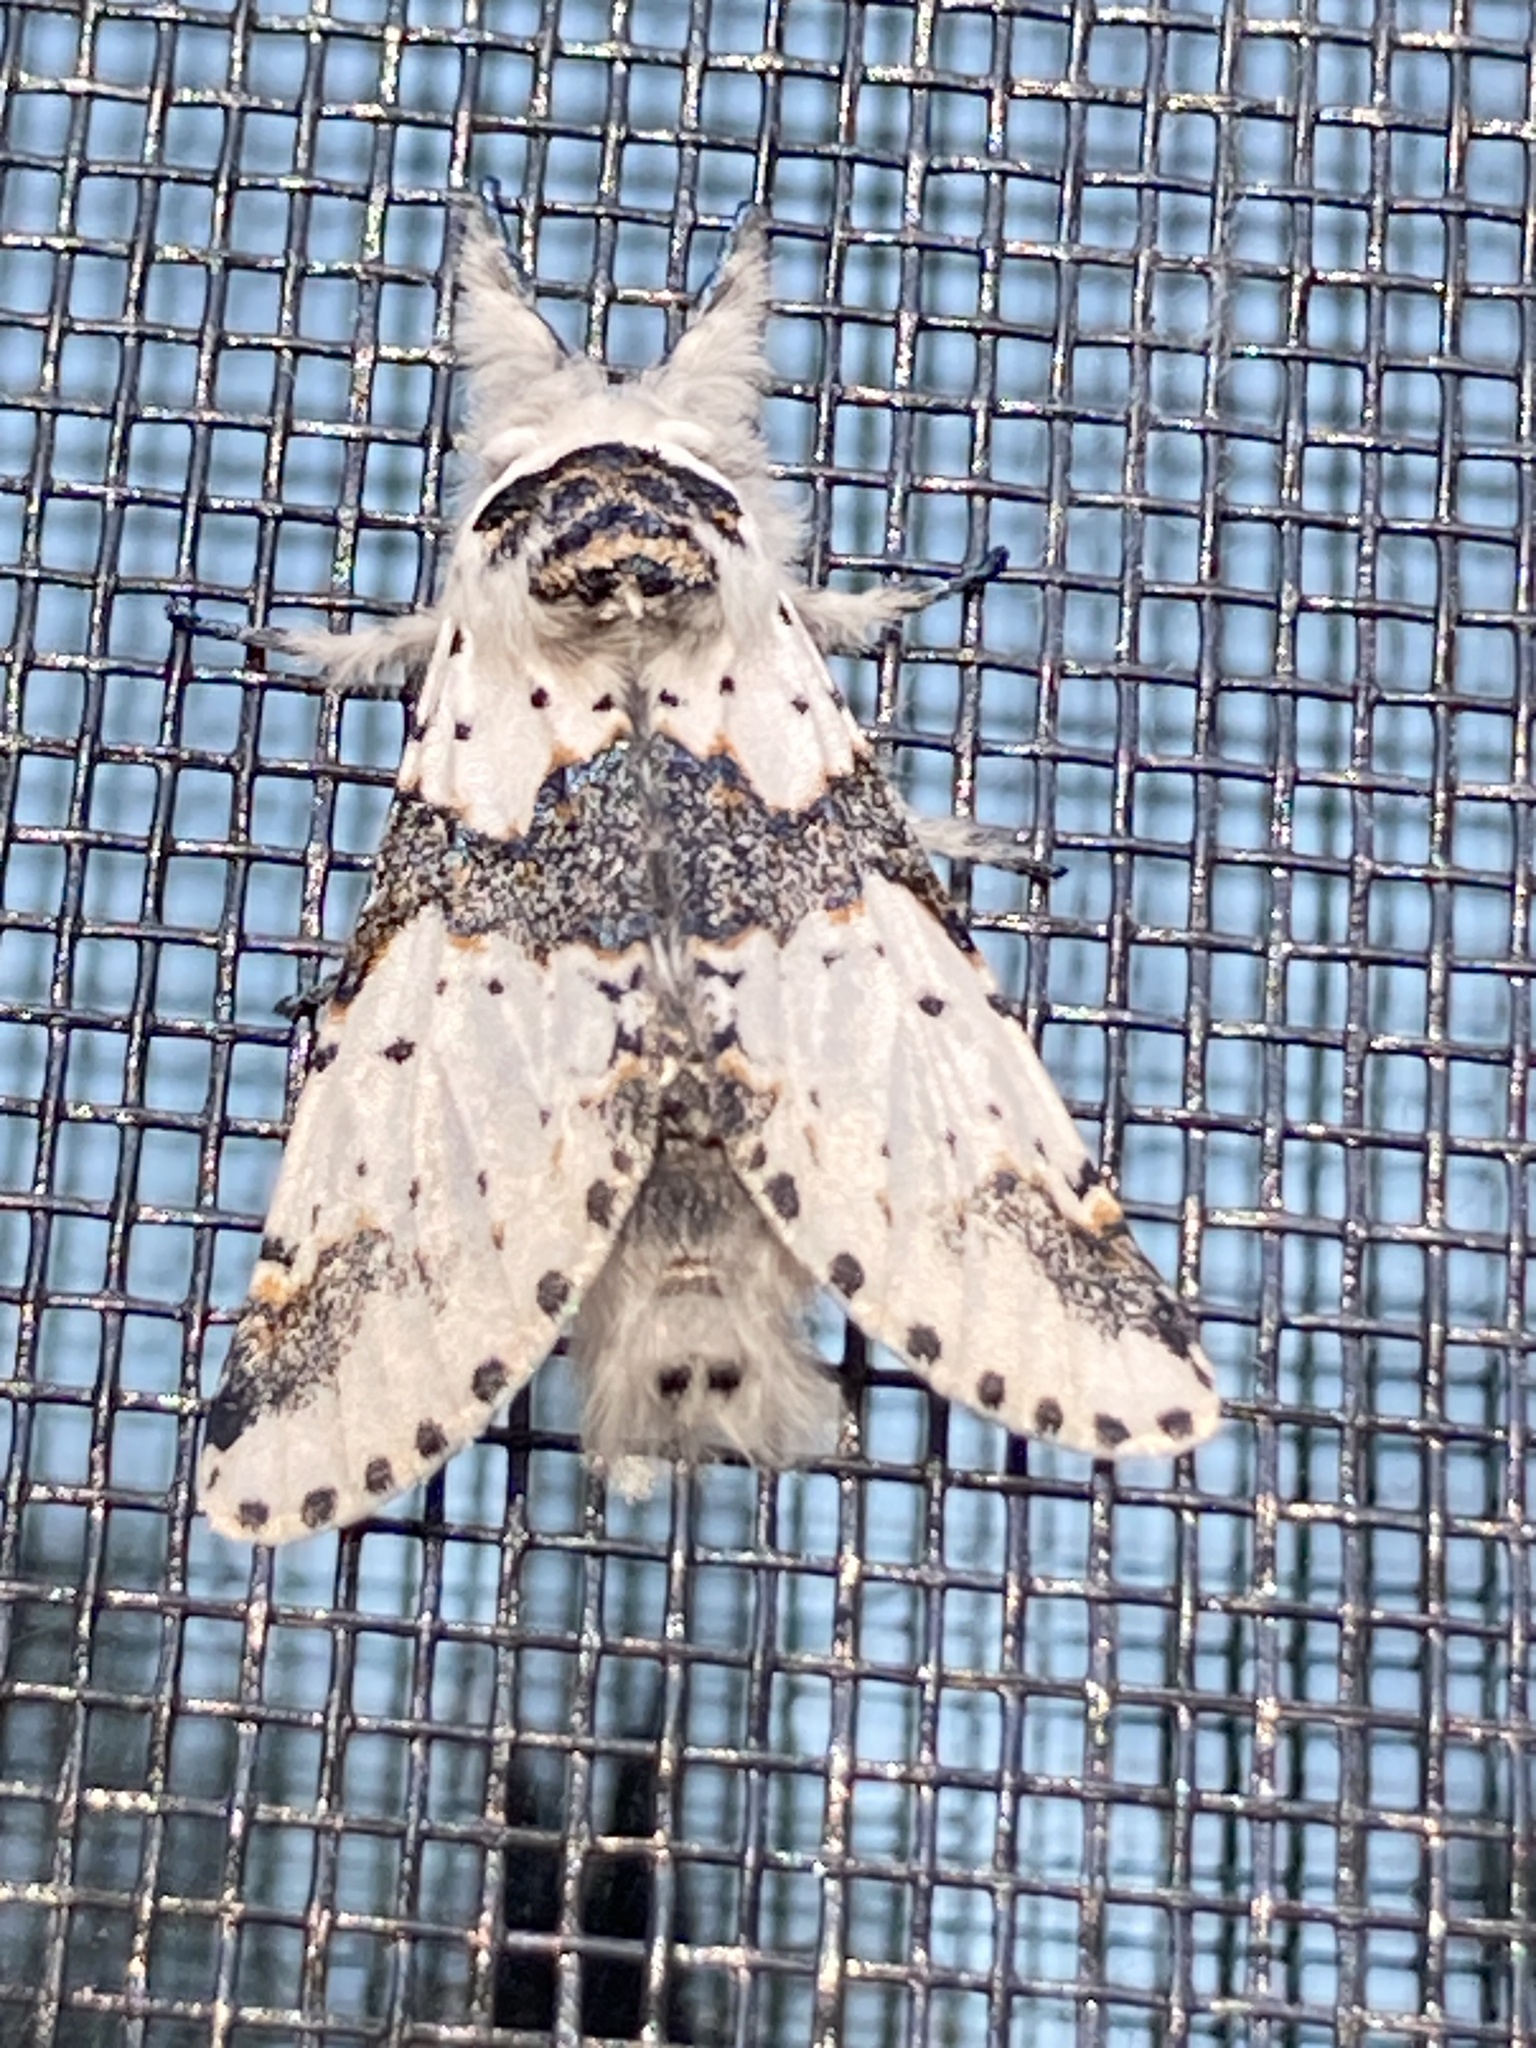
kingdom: Animalia
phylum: Arthropoda
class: Insecta
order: Lepidoptera
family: Notodontidae
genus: Furcula
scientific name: Furcula borealis
